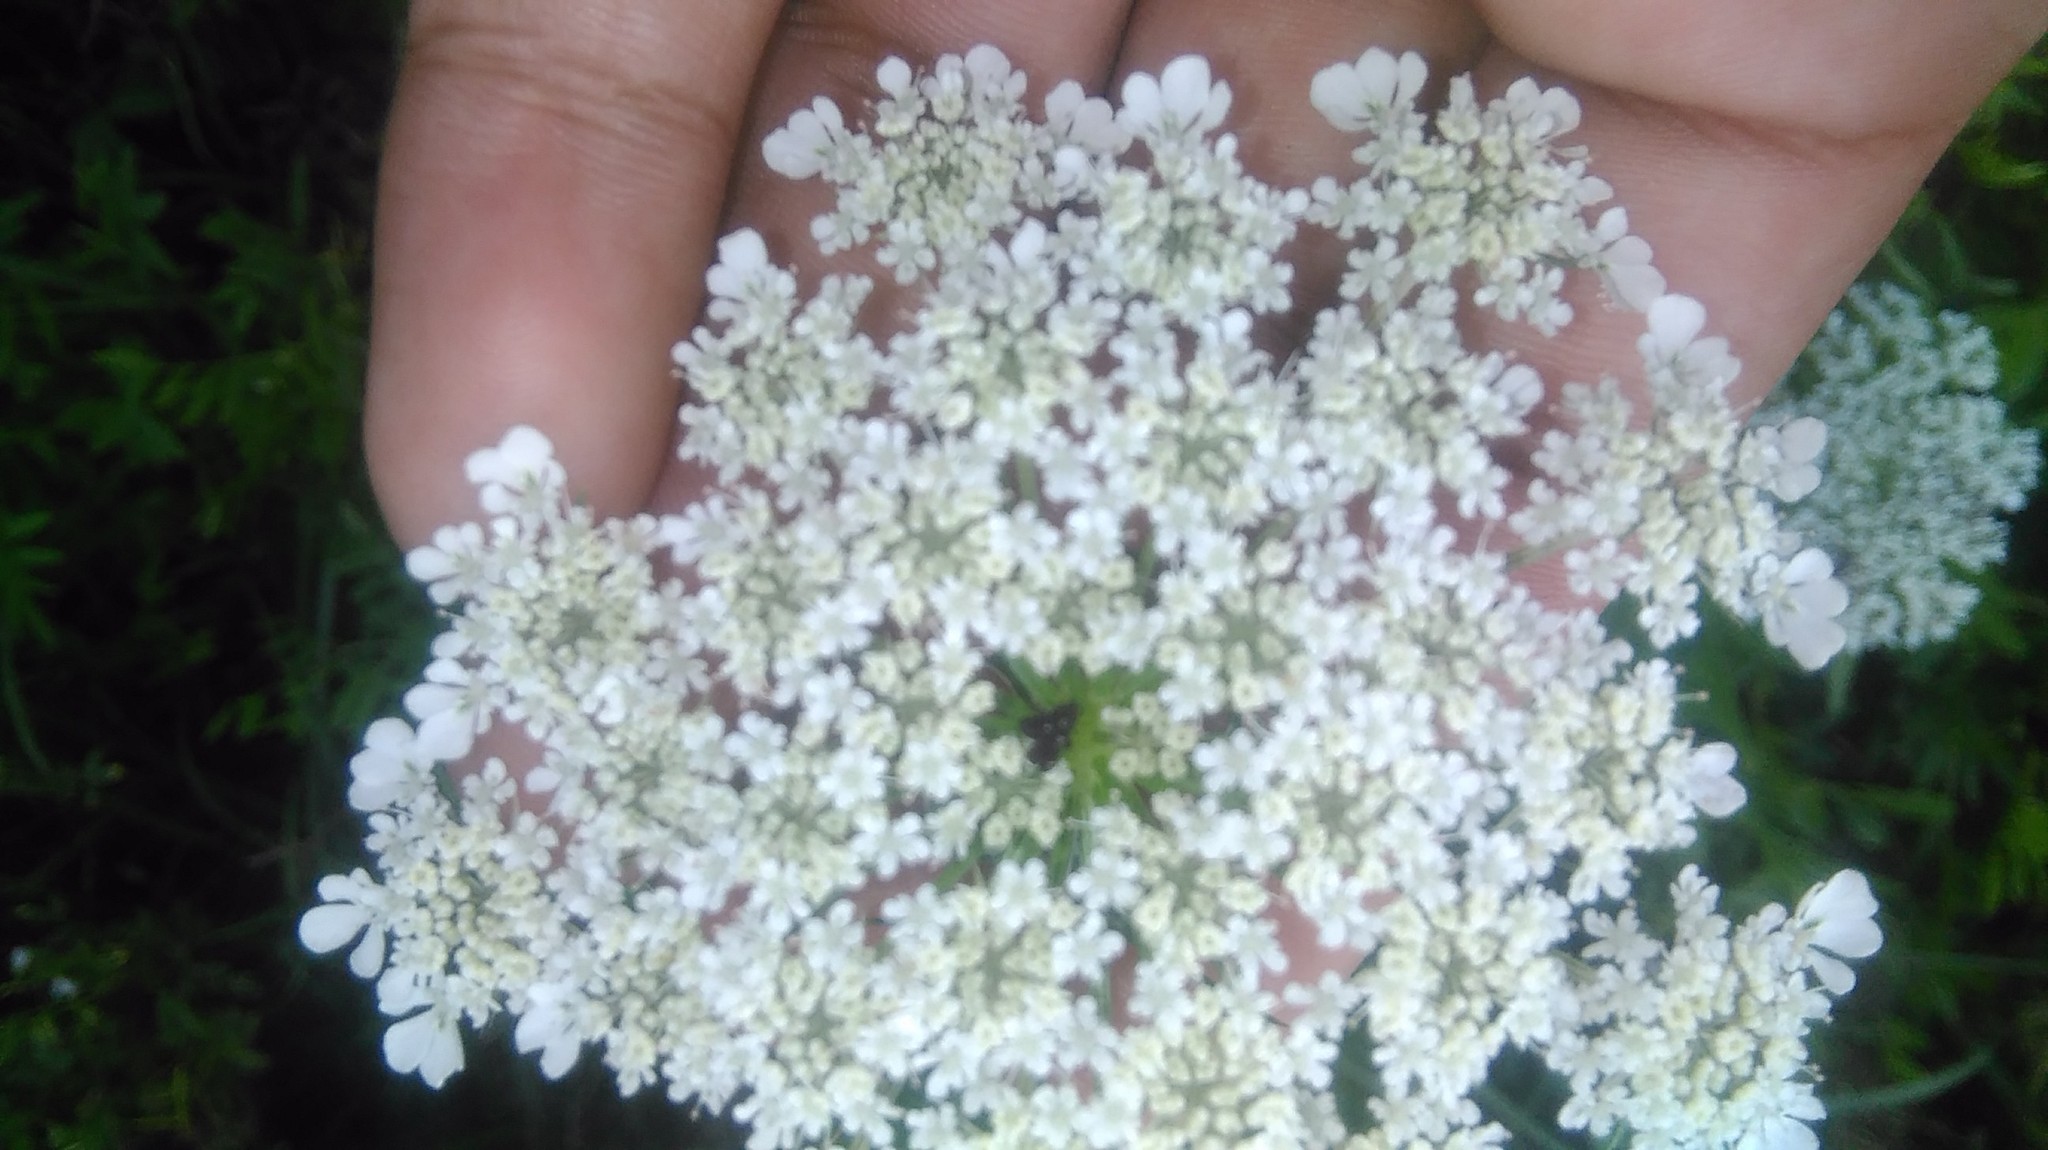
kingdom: Plantae
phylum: Tracheophyta
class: Magnoliopsida
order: Apiales
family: Apiaceae
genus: Daucus
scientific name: Daucus carota
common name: Wild carrot
